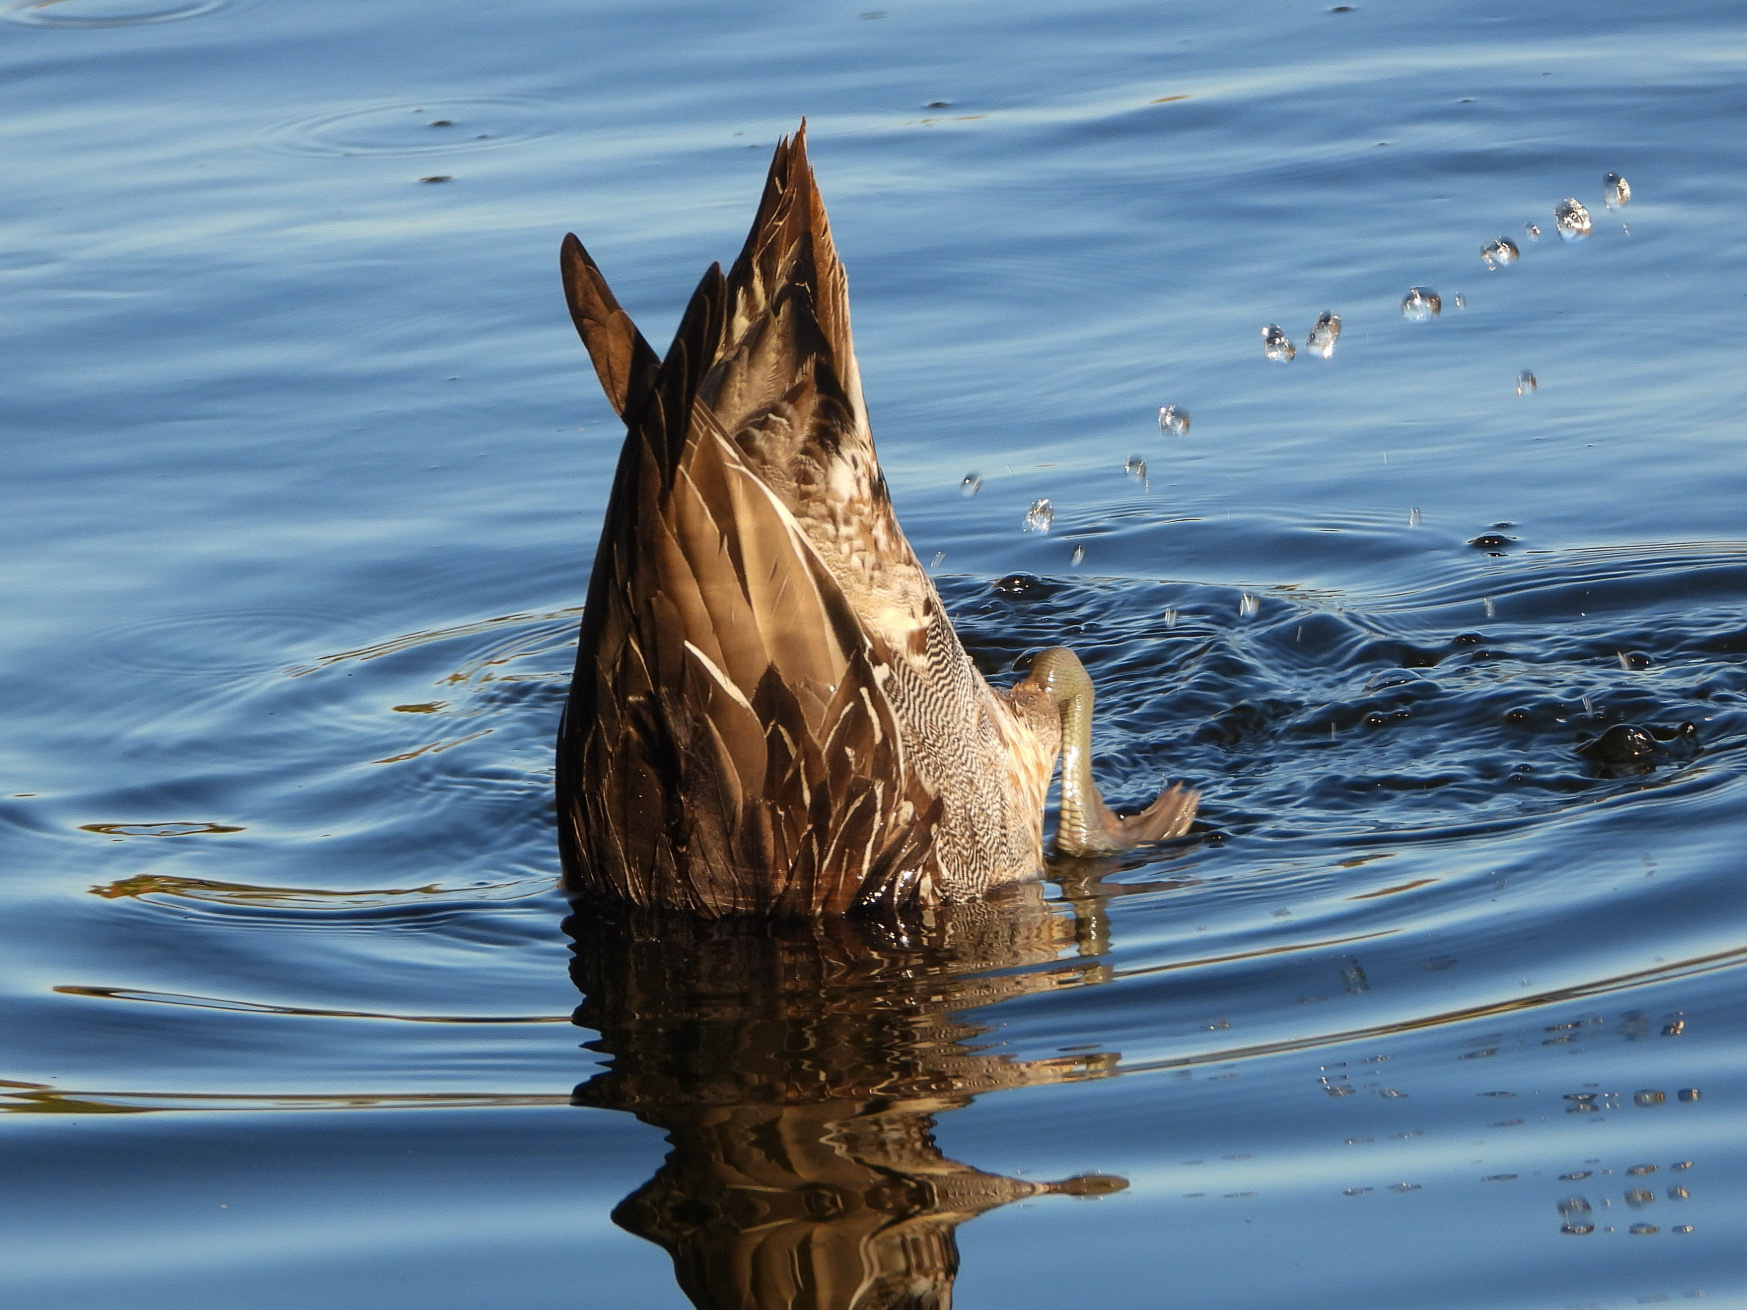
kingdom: Animalia
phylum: Chordata
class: Aves
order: Anseriformes
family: Anatidae
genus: Anas
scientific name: Anas acuta
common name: Northern pintail
